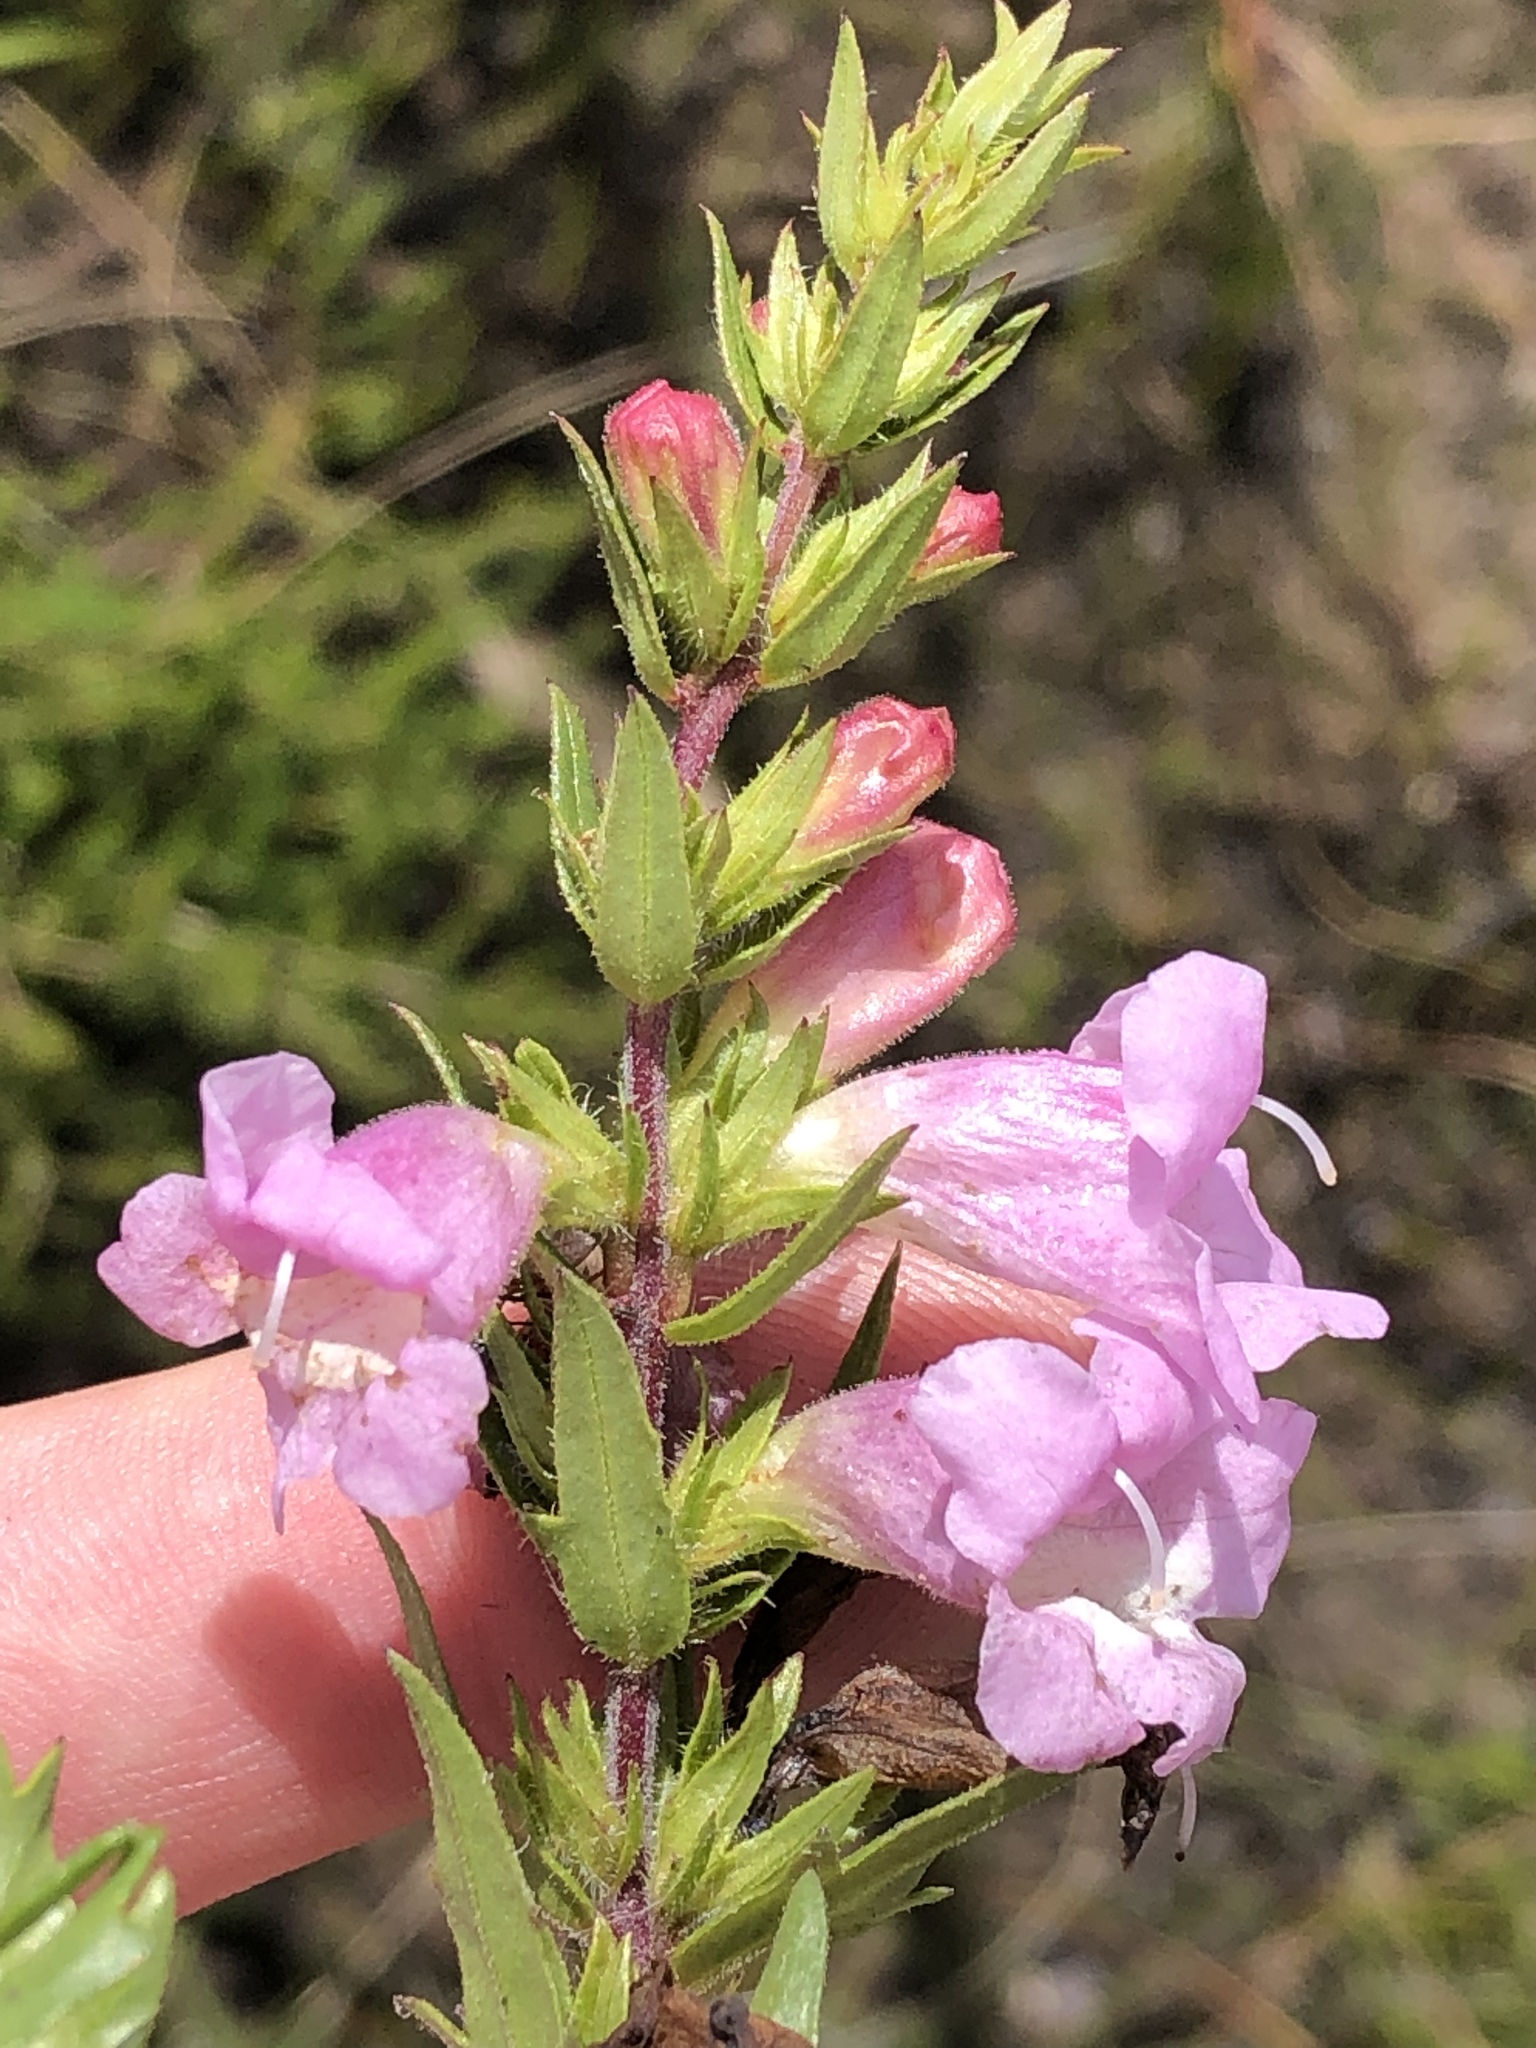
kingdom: Plantae
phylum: Tracheophyta
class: Magnoliopsida
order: Lamiales
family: Orobanchaceae
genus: Graderia
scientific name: Graderia scabra
